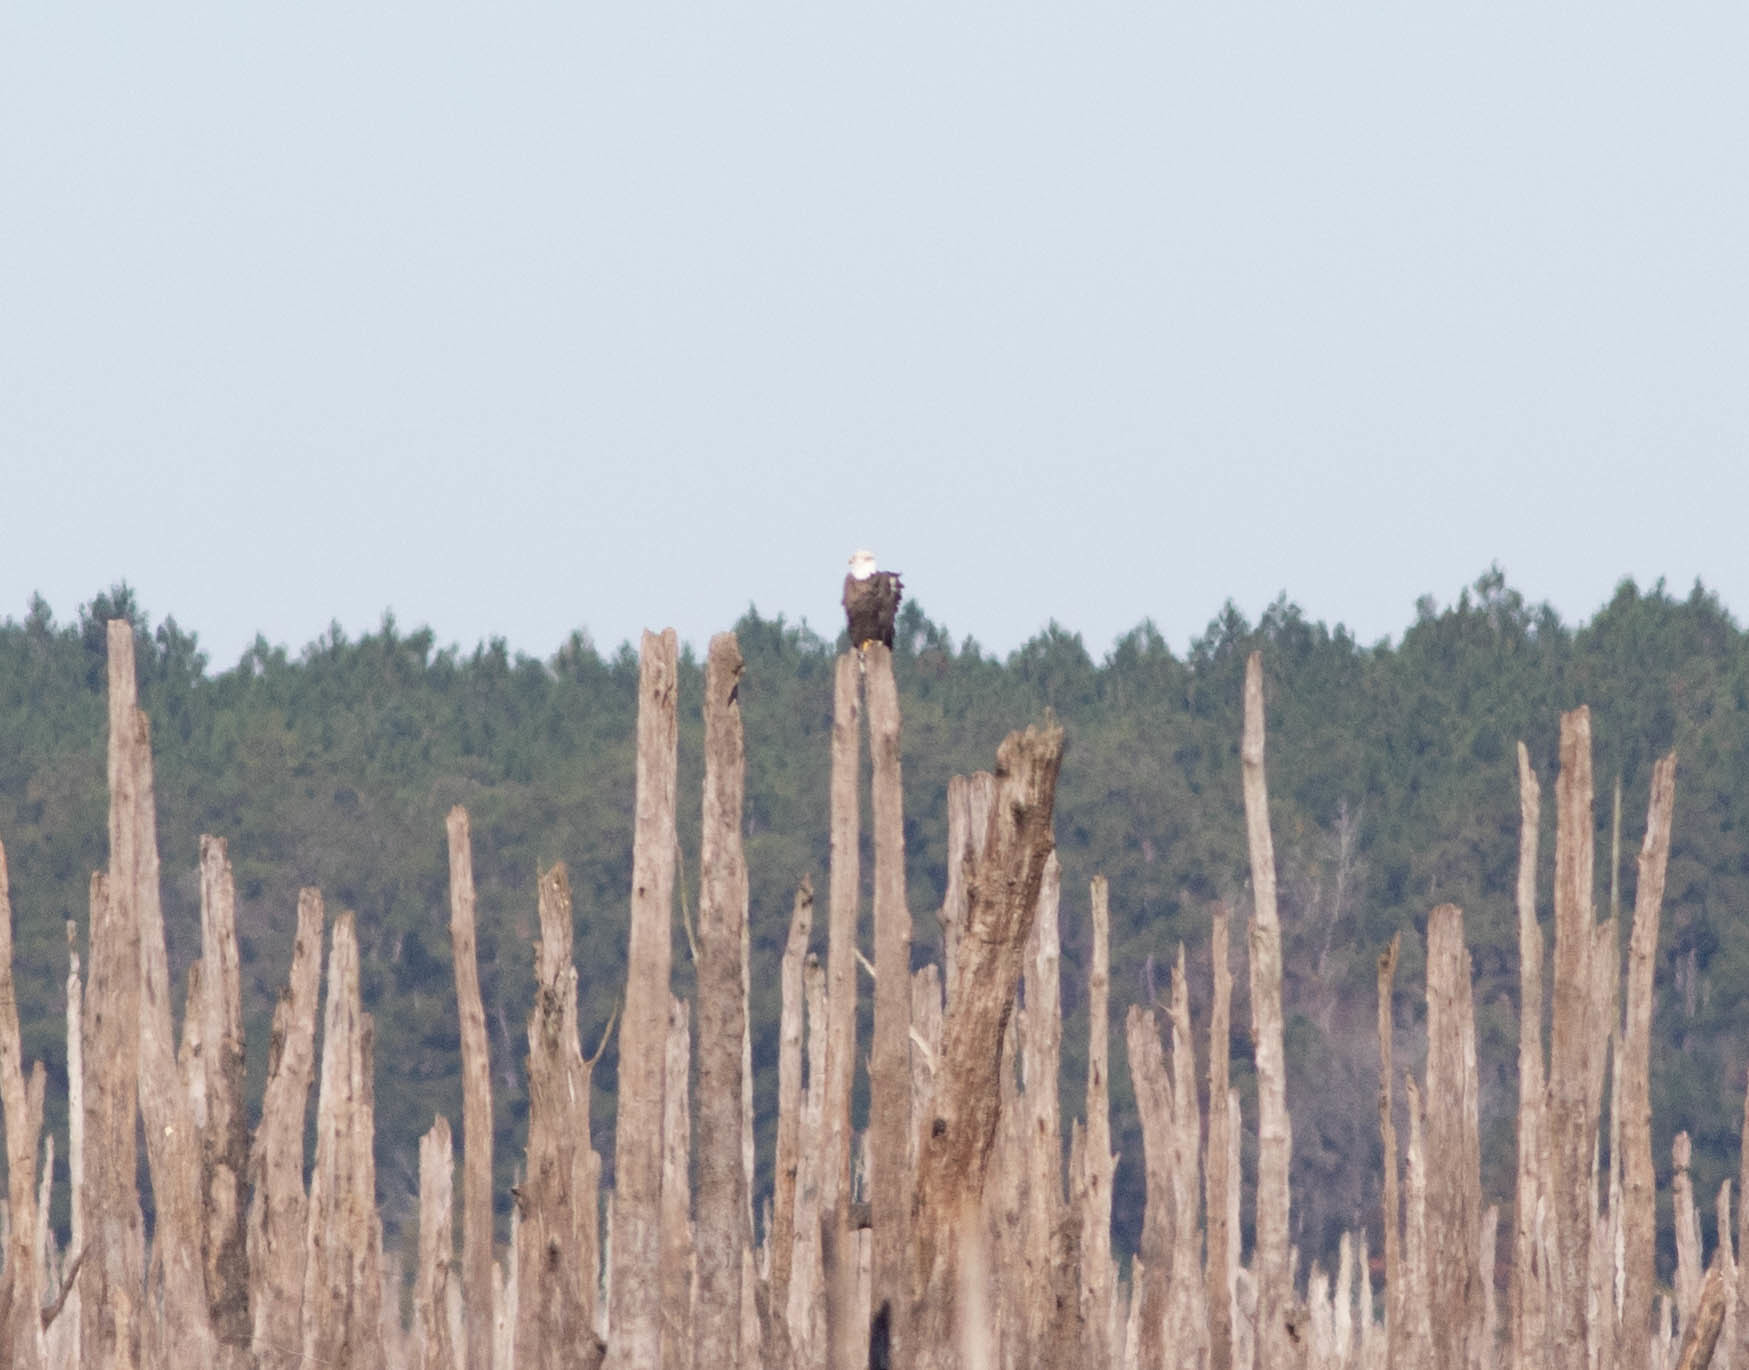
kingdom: Animalia
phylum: Chordata
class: Aves
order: Accipitriformes
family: Accipitridae
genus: Haliaeetus
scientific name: Haliaeetus leucocephalus
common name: Bald eagle
